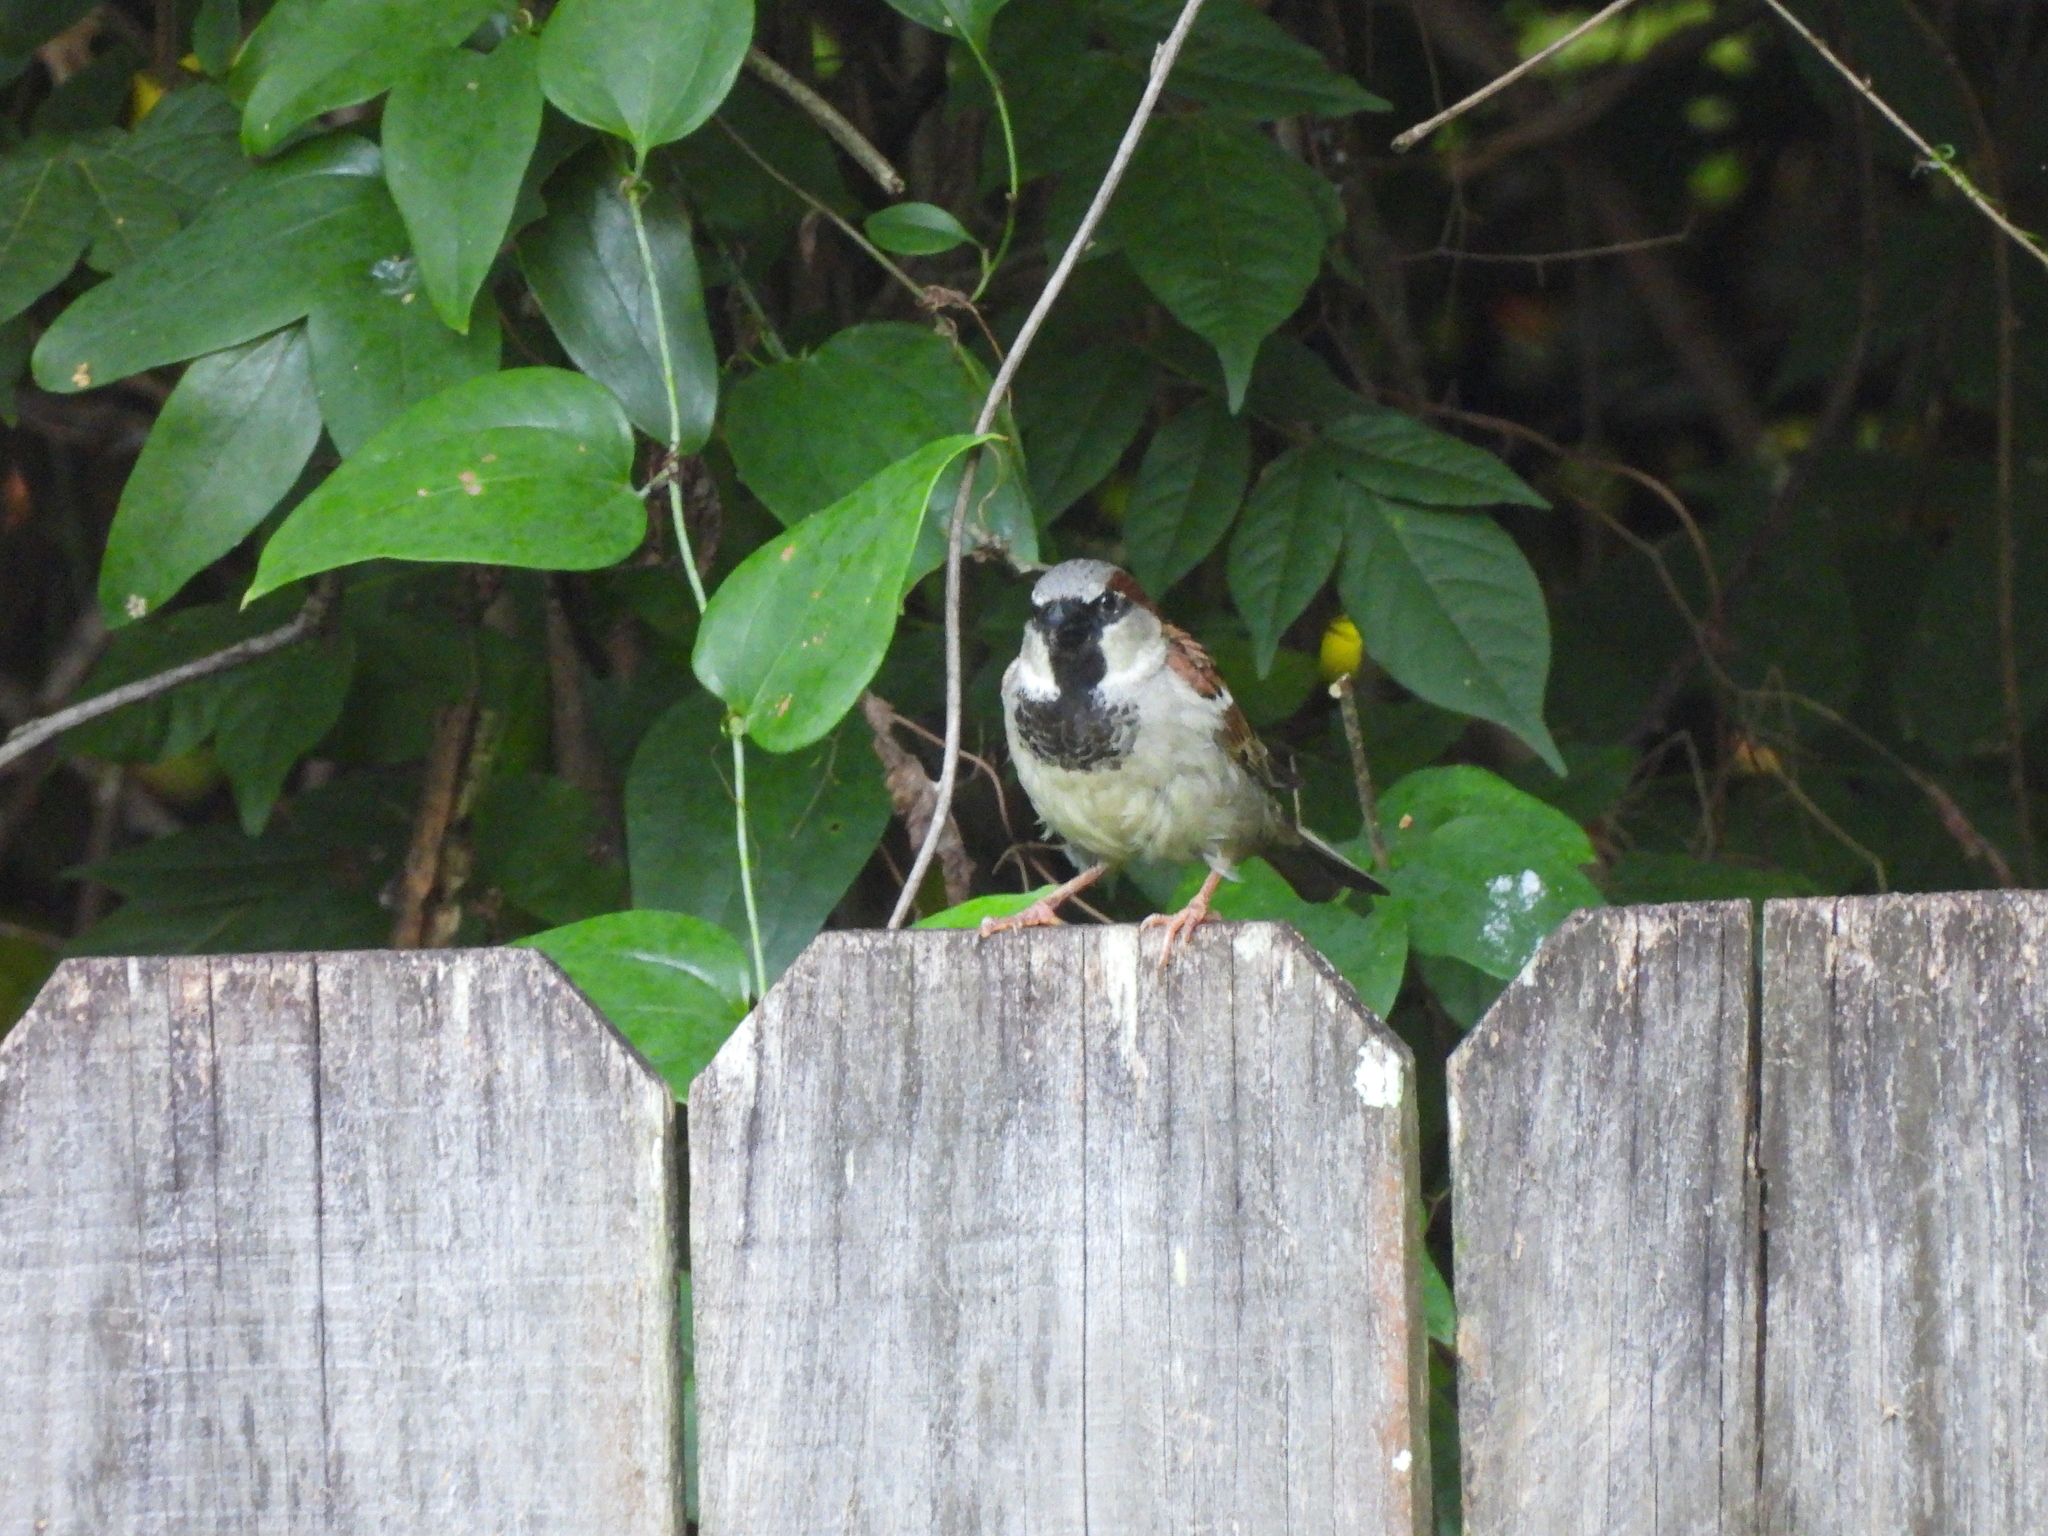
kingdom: Animalia
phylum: Chordata
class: Aves
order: Passeriformes
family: Passeridae
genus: Passer
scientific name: Passer domesticus
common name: House sparrow
